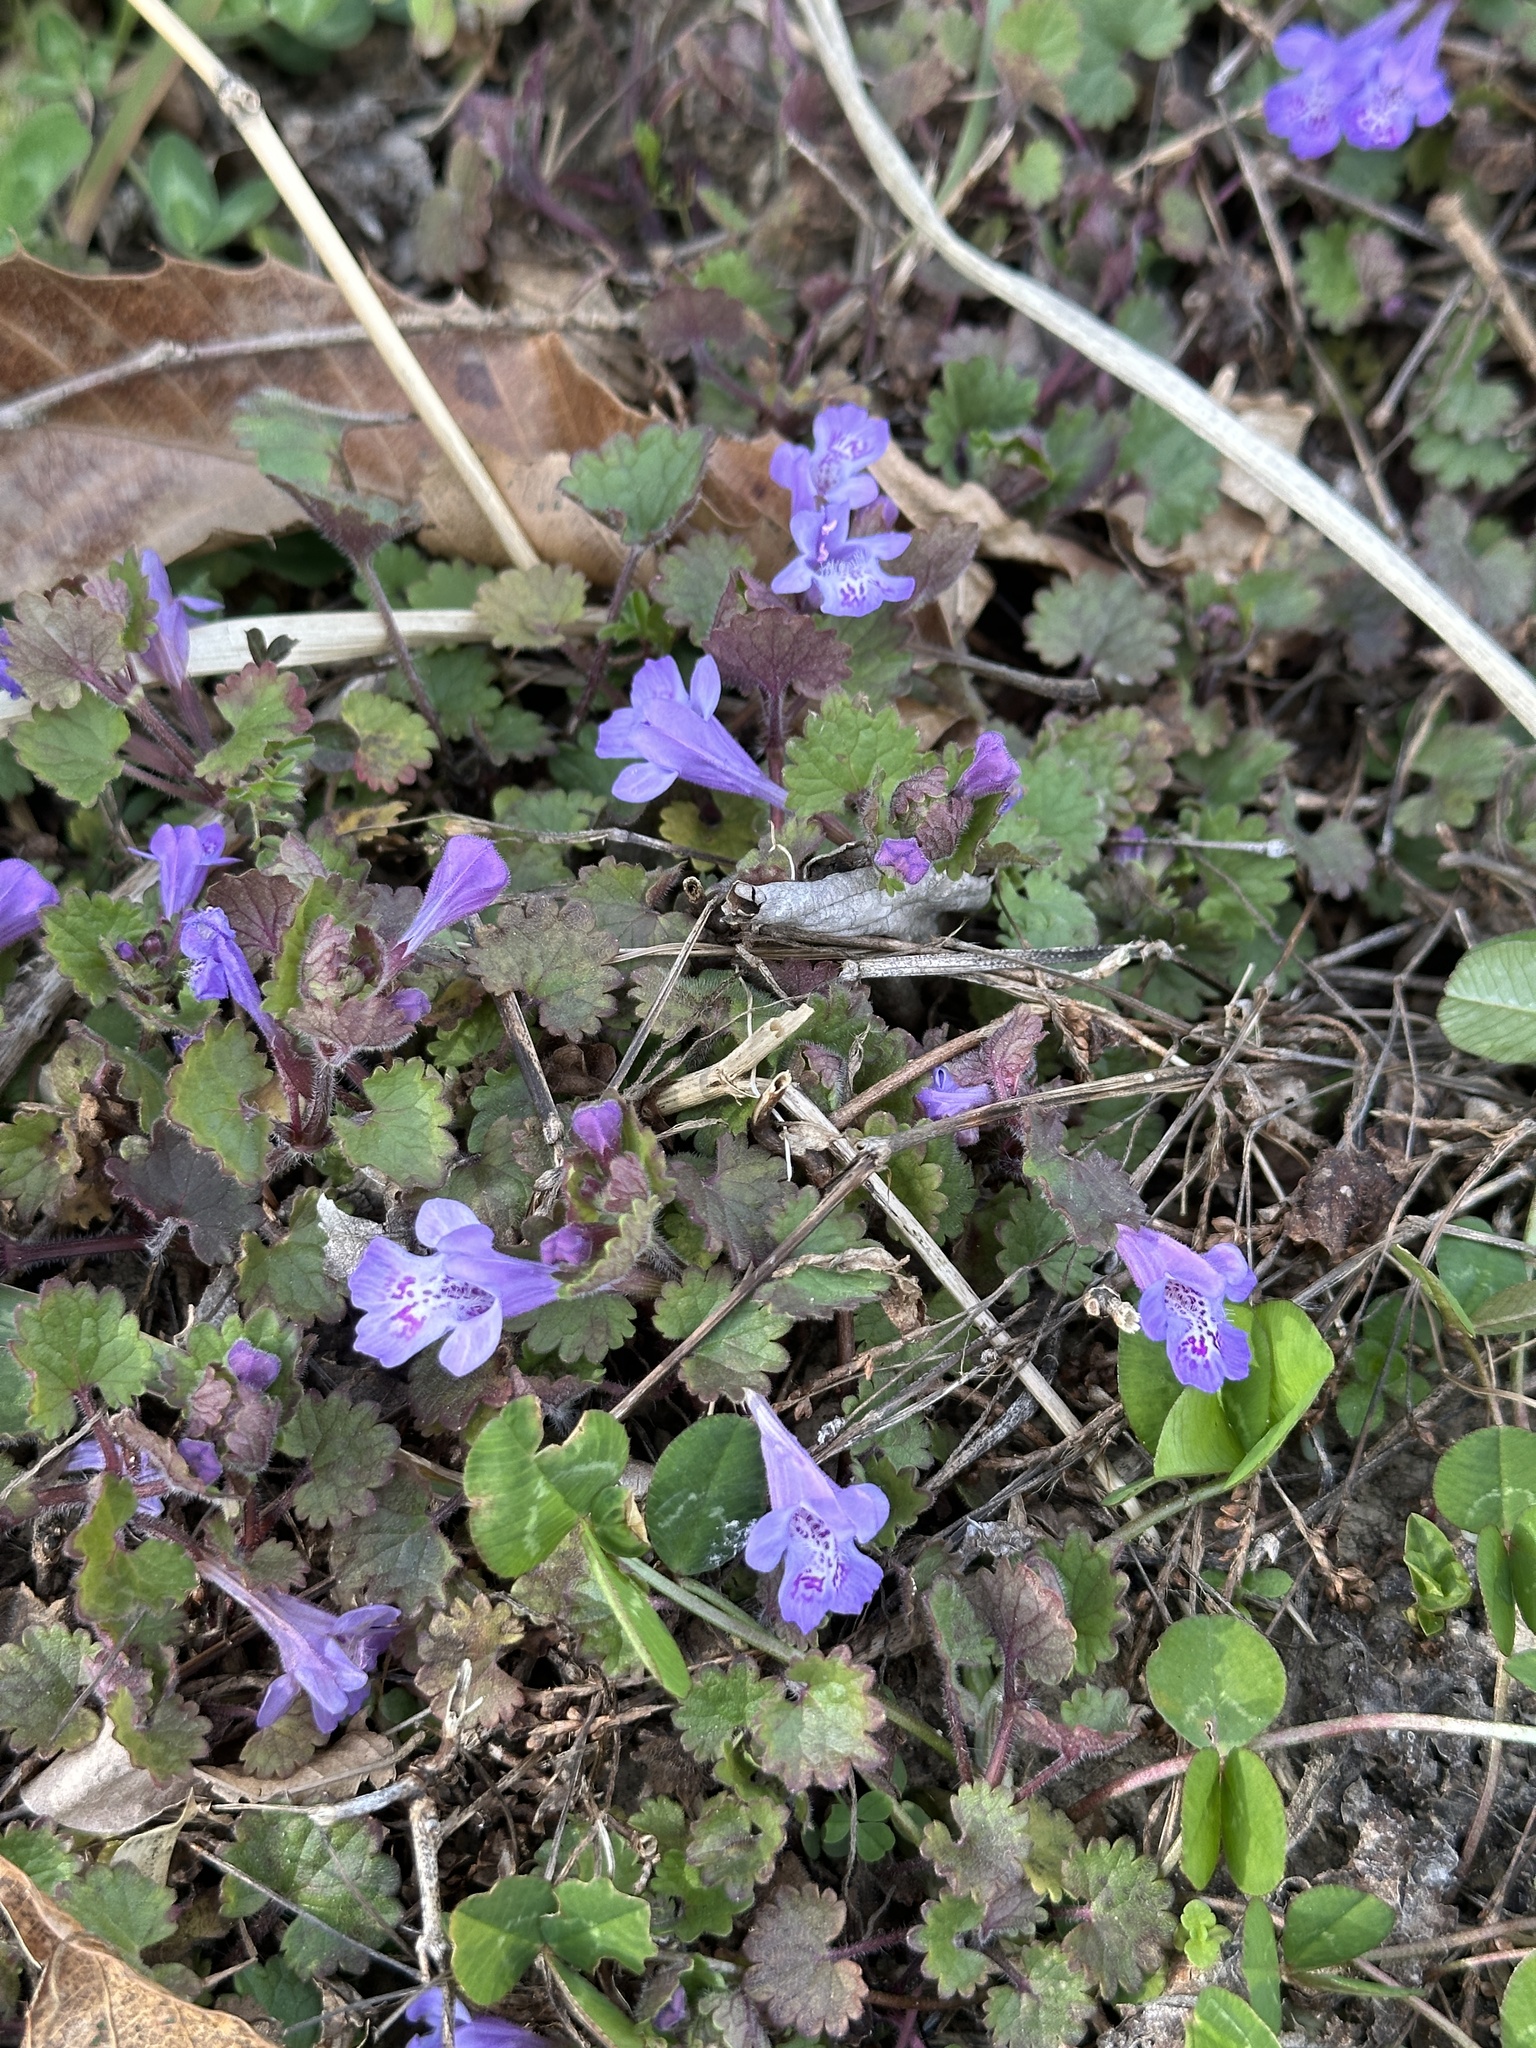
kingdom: Plantae
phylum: Tracheophyta
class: Magnoliopsida
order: Lamiales
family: Lamiaceae
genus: Glechoma
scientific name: Glechoma grandis
